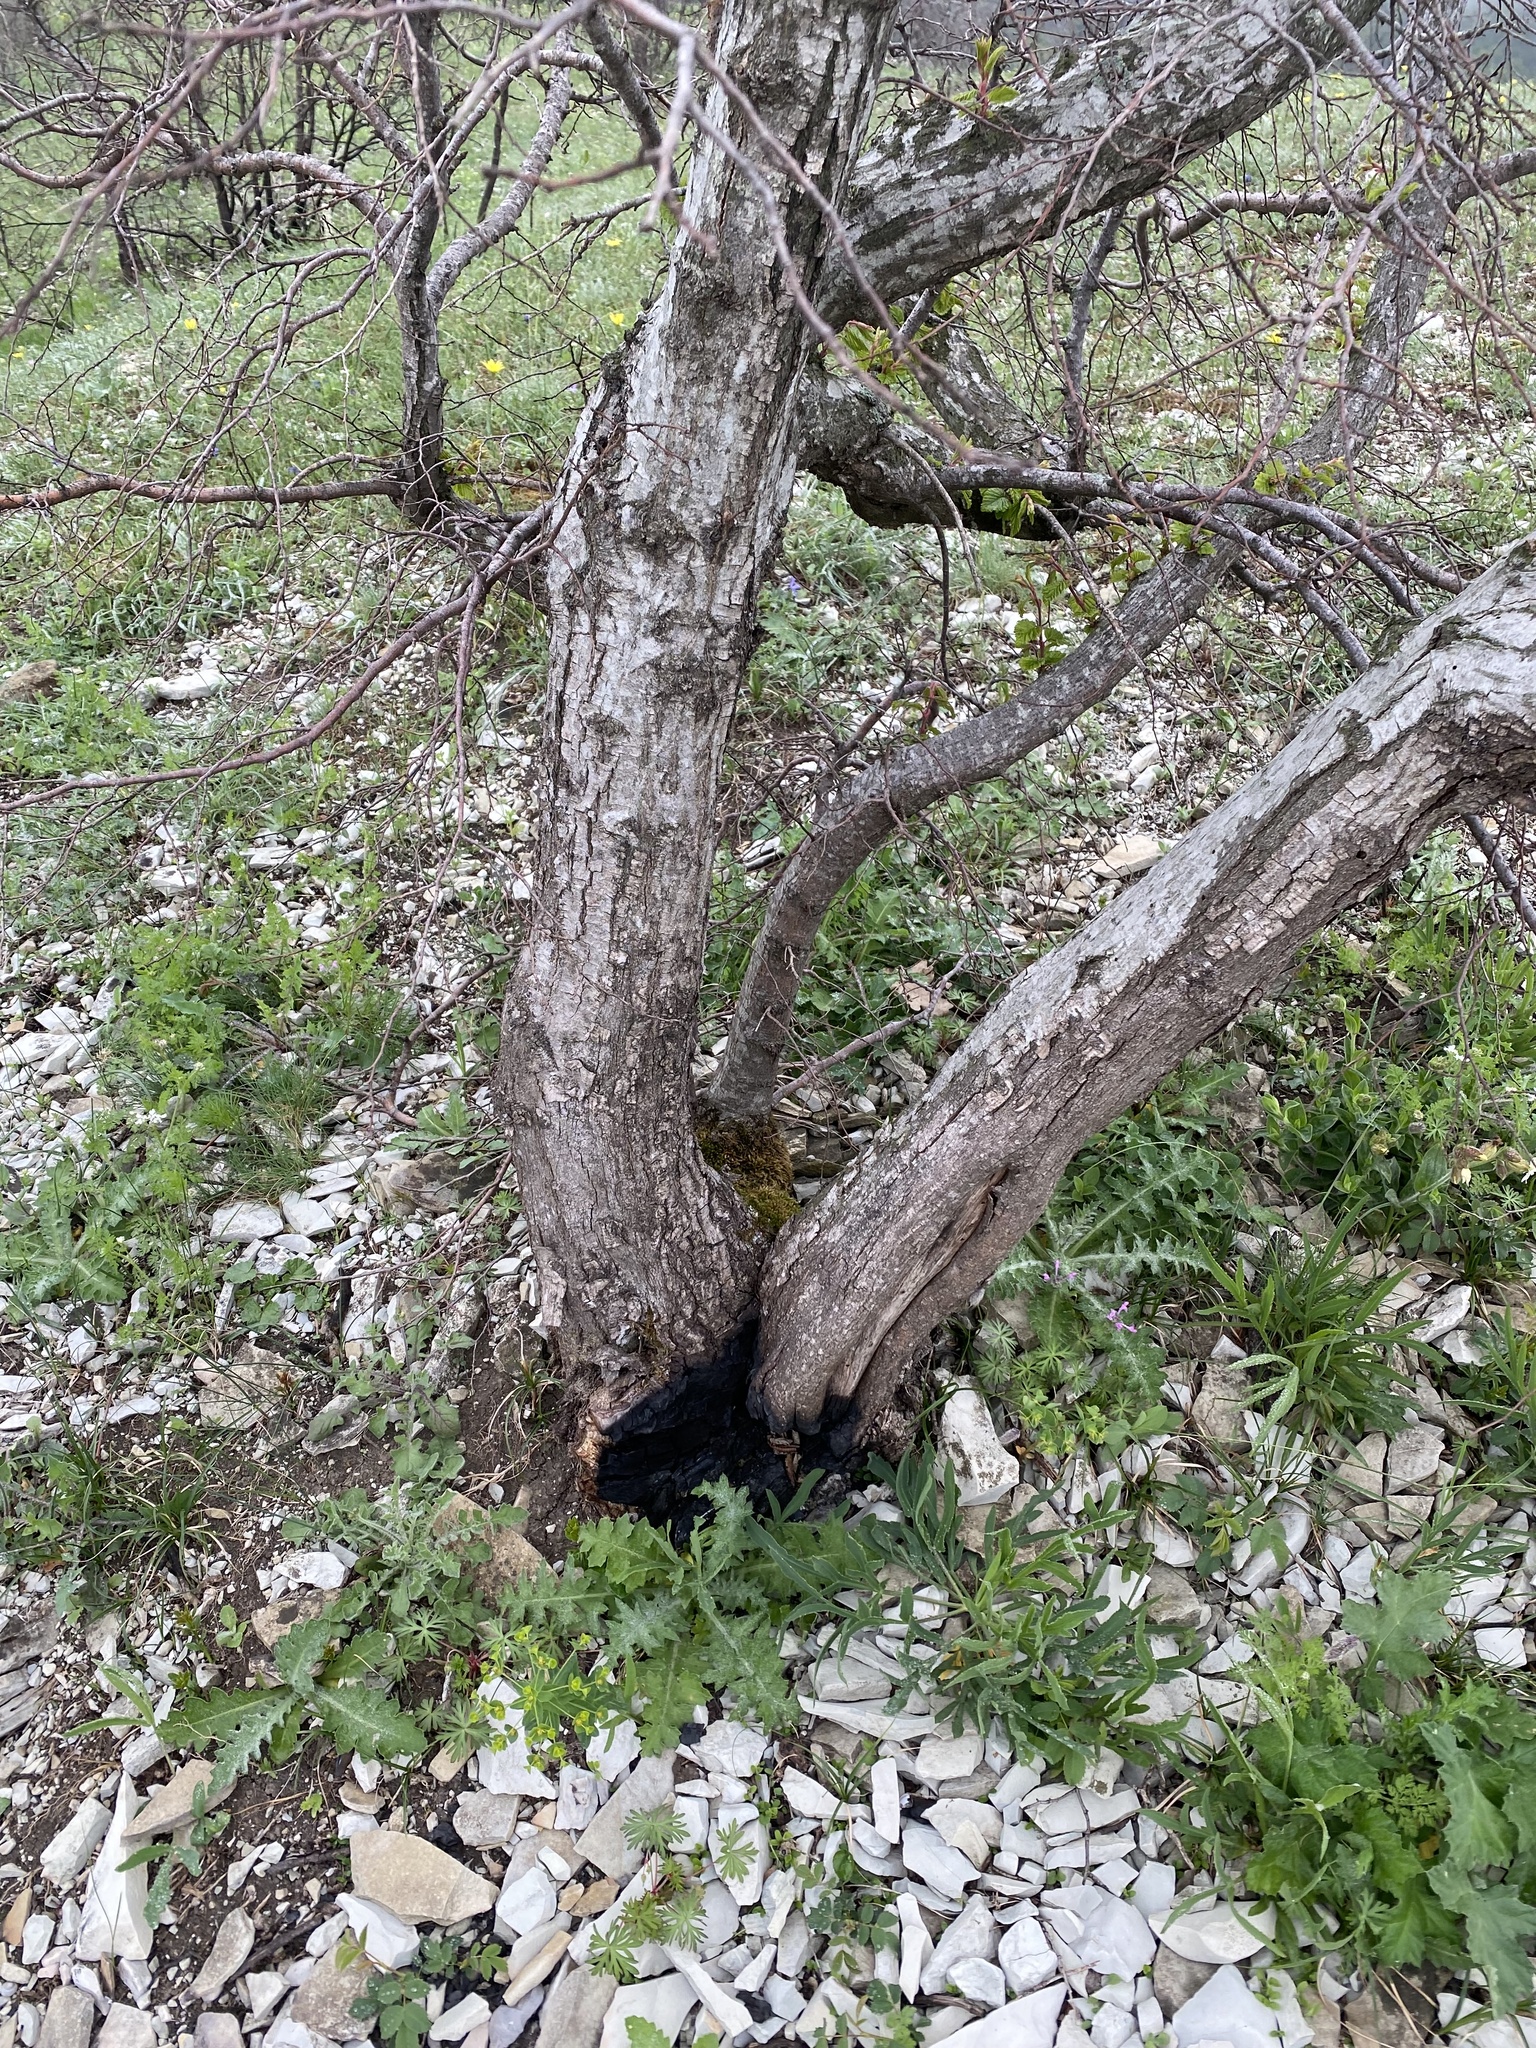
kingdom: Plantae
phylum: Tracheophyta
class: Magnoliopsida
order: Fagales
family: Betulaceae
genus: Carpinus
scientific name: Carpinus orientalis
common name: Eastern hornbeam
